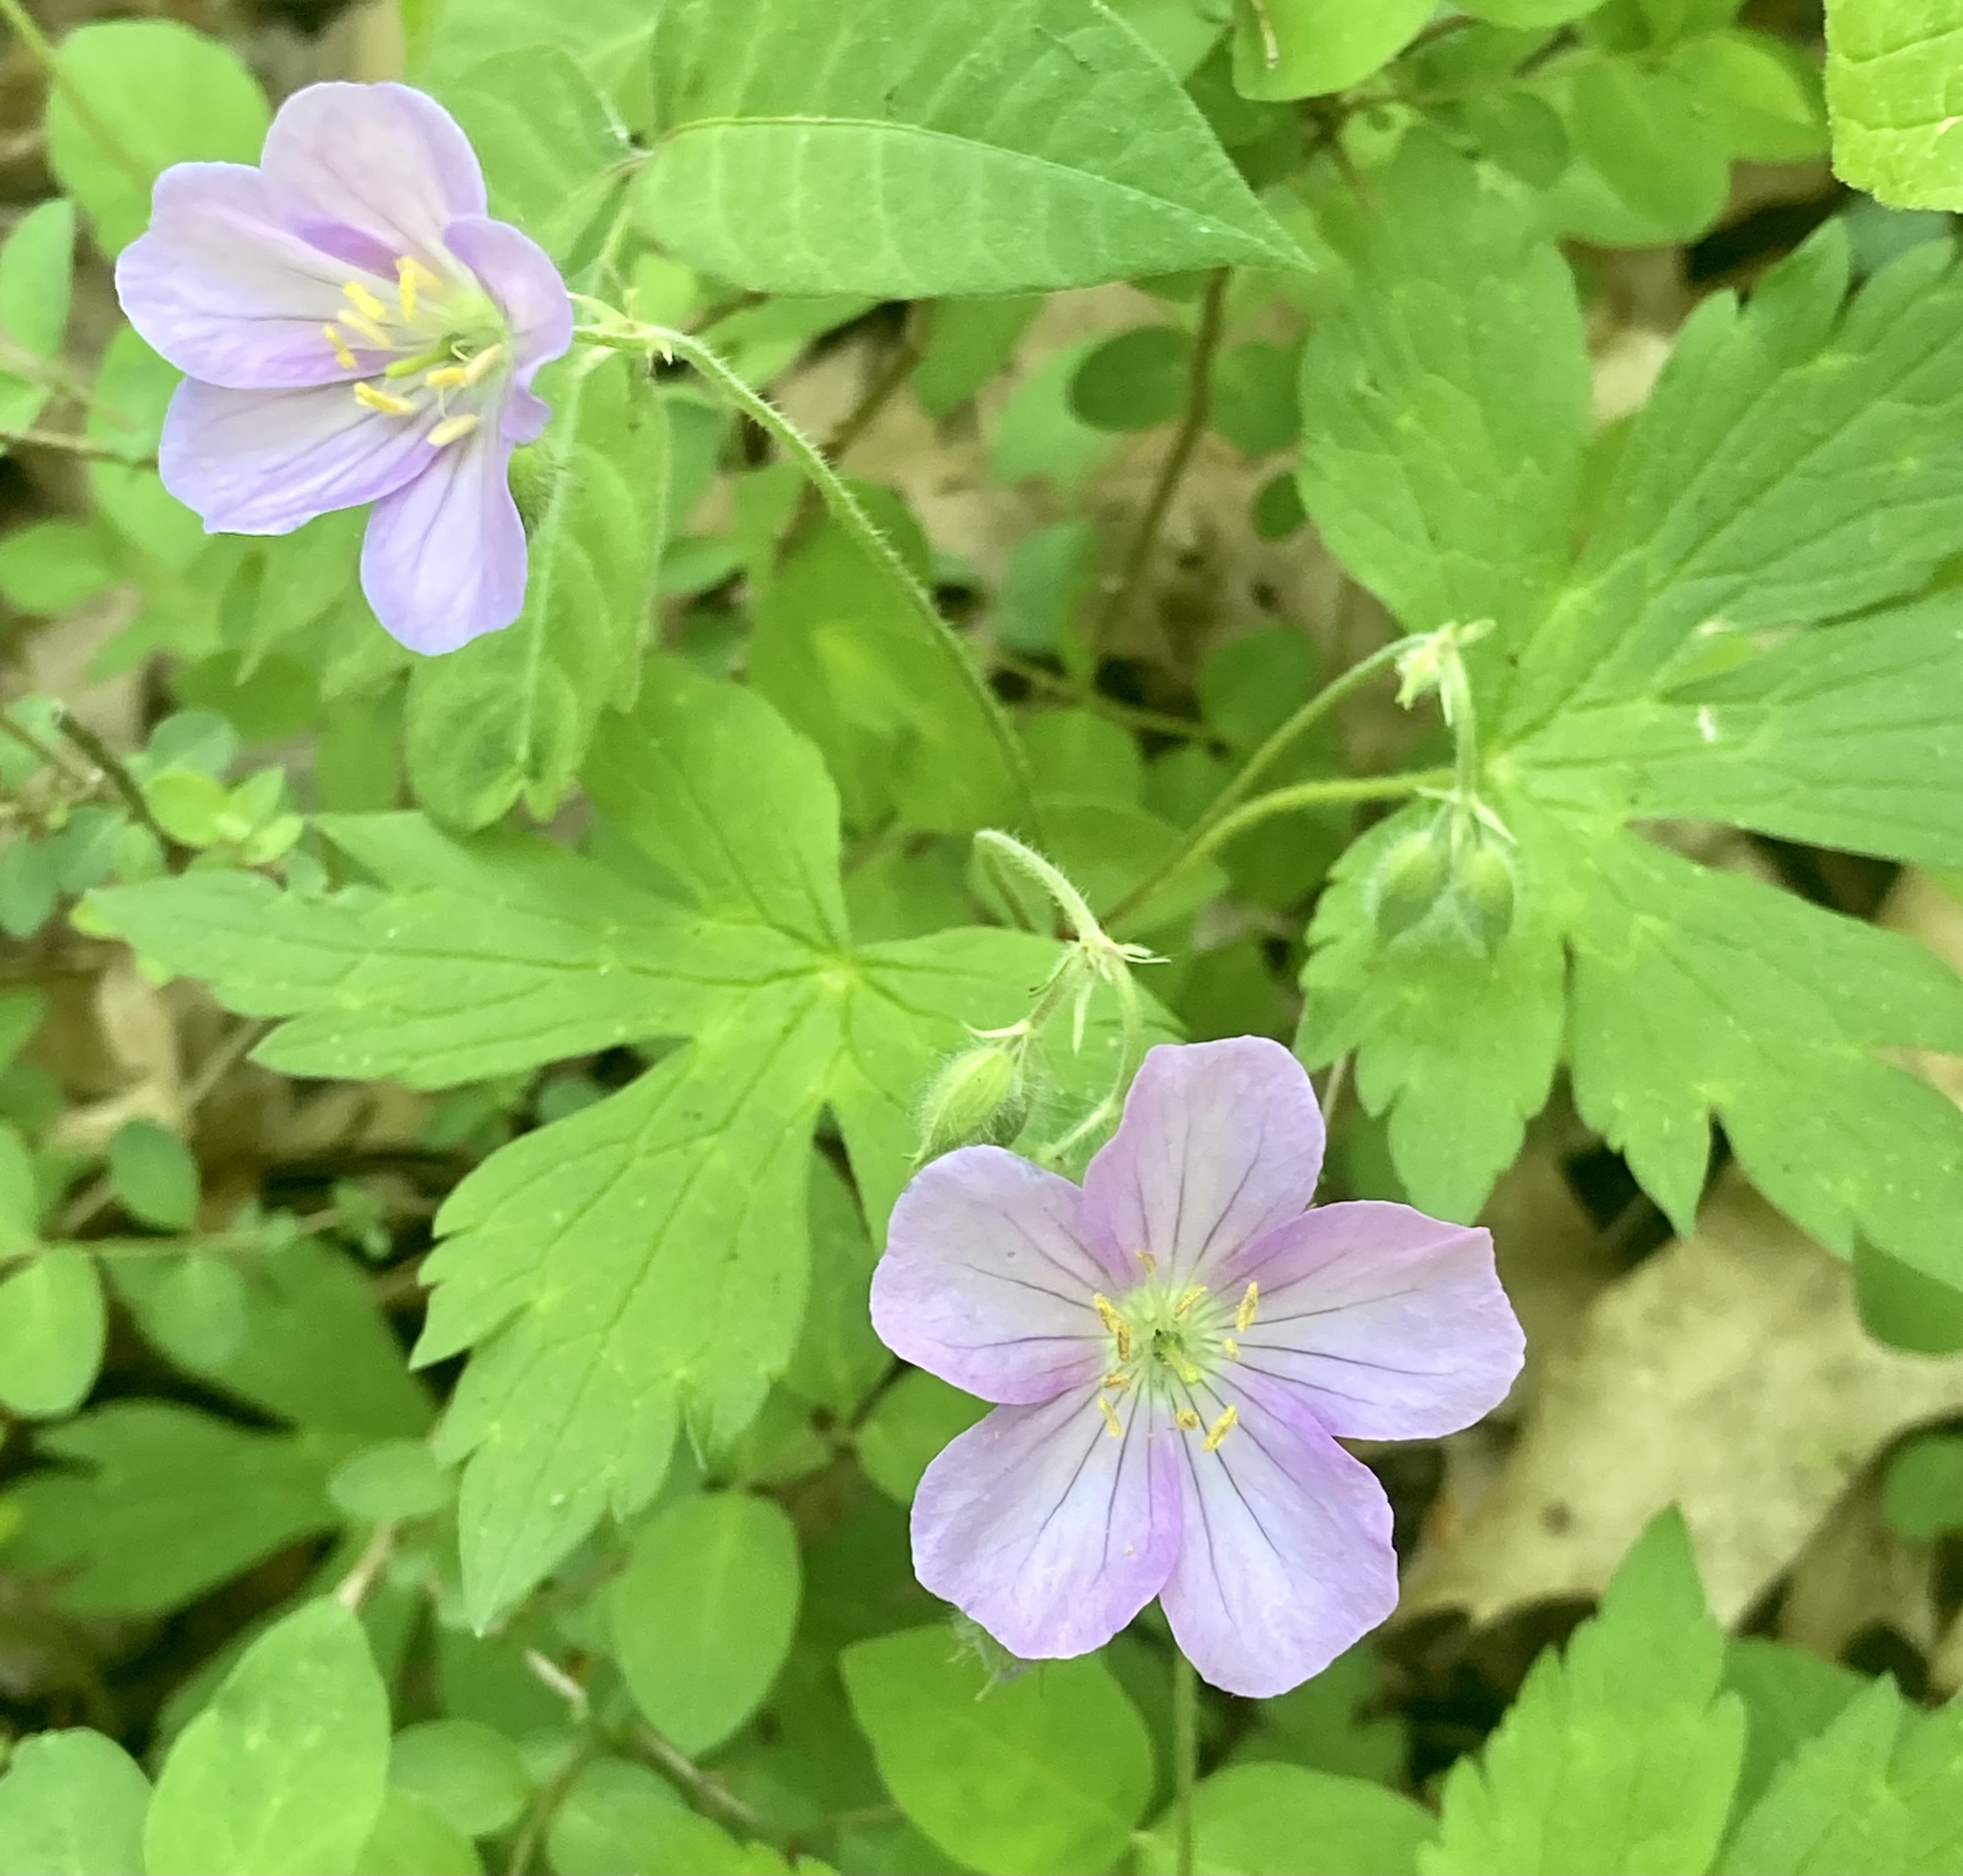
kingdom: Plantae
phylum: Tracheophyta
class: Magnoliopsida
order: Geraniales
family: Geraniaceae
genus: Geranium
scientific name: Geranium maculatum
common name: Spotted geranium
